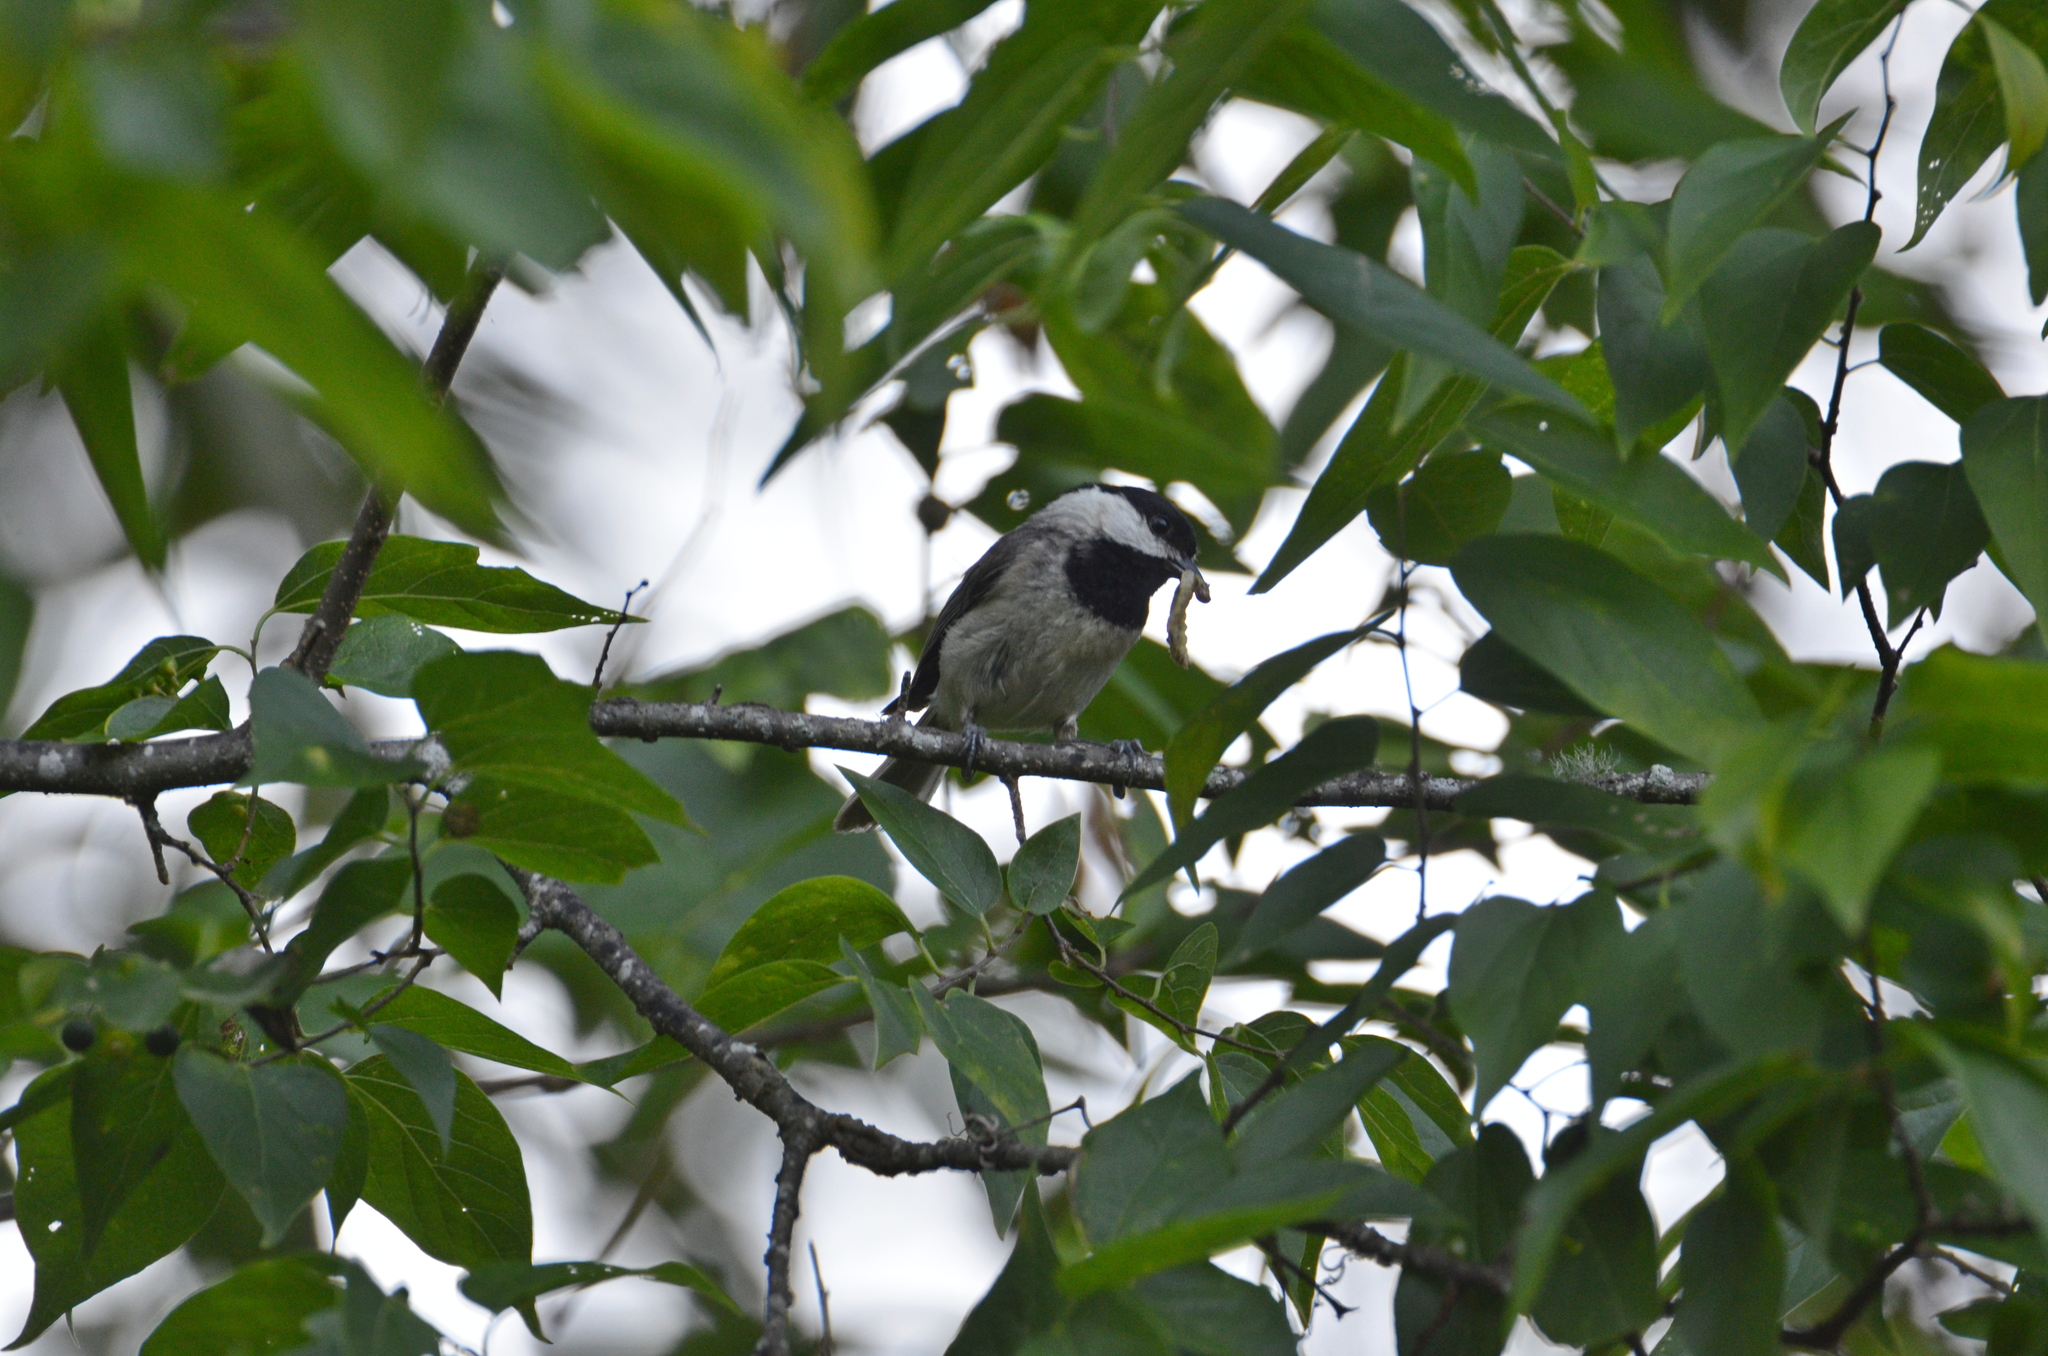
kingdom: Animalia
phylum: Chordata
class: Aves
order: Passeriformes
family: Paridae
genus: Poecile
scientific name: Poecile carolinensis
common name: Carolina chickadee
